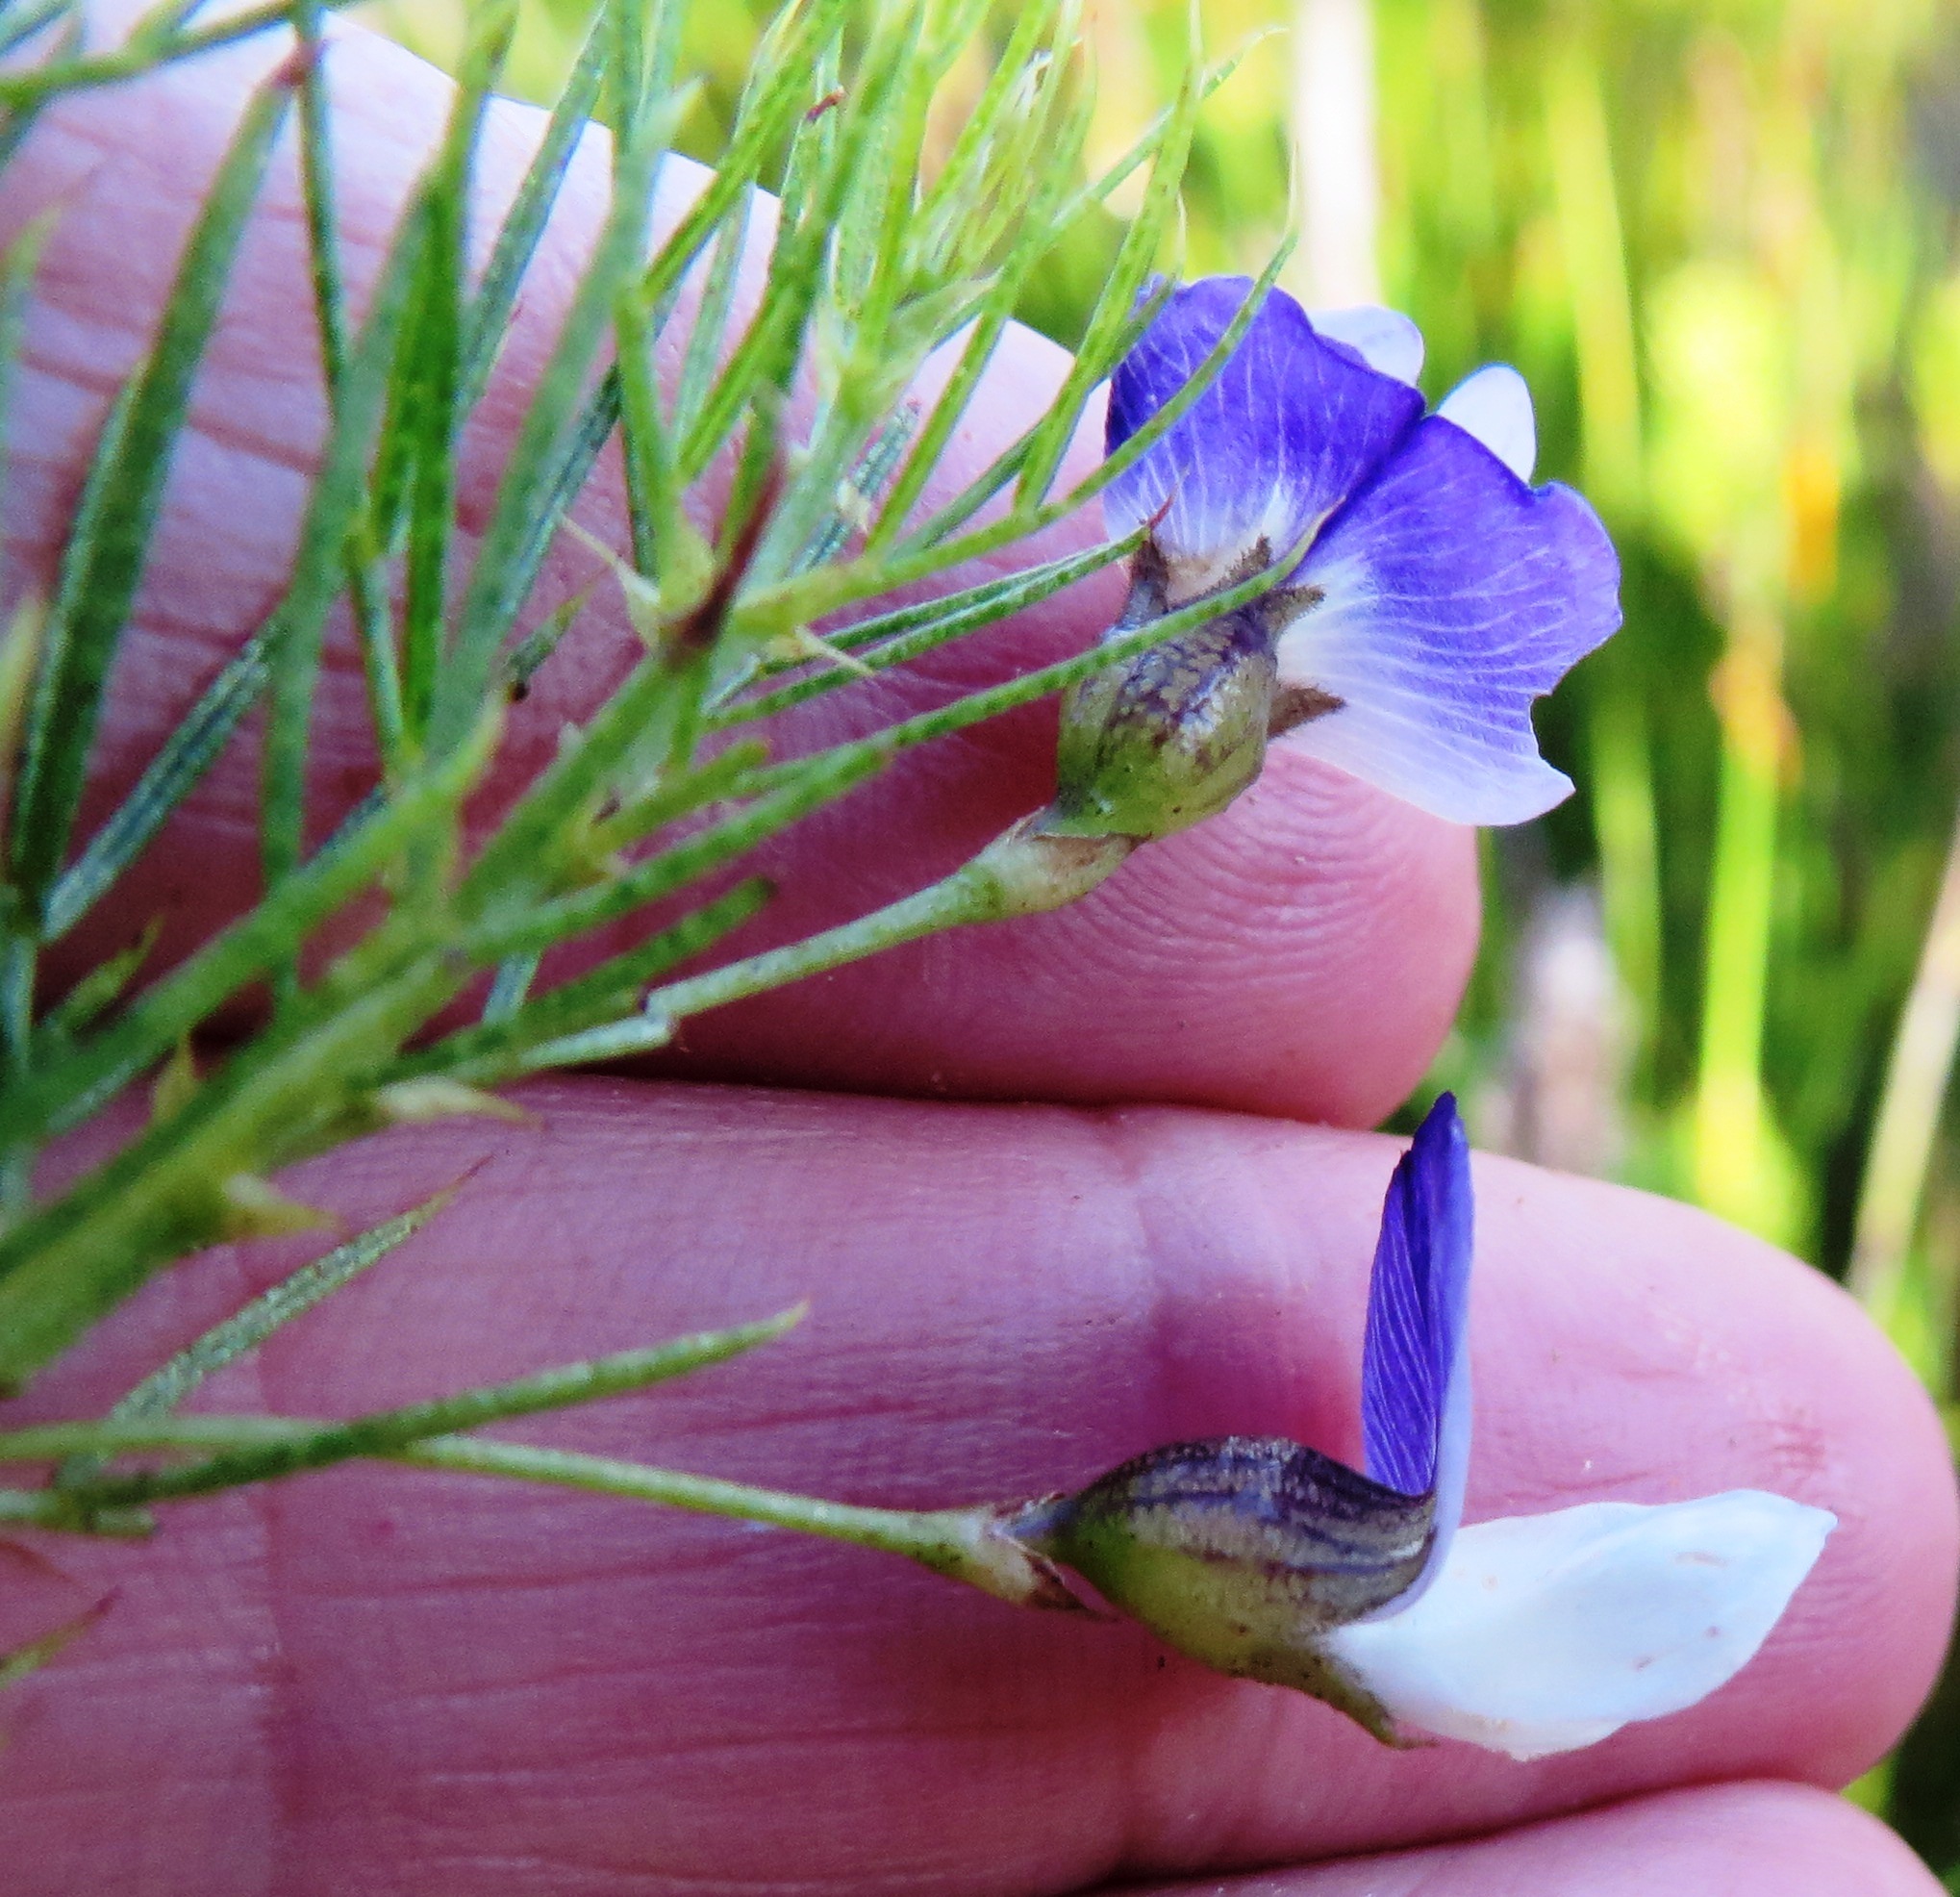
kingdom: Plantae
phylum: Tracheophyta
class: Magnoliopsida
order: Fabales
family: Fabaceae
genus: Psoralea
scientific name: Psoralea laevigata
